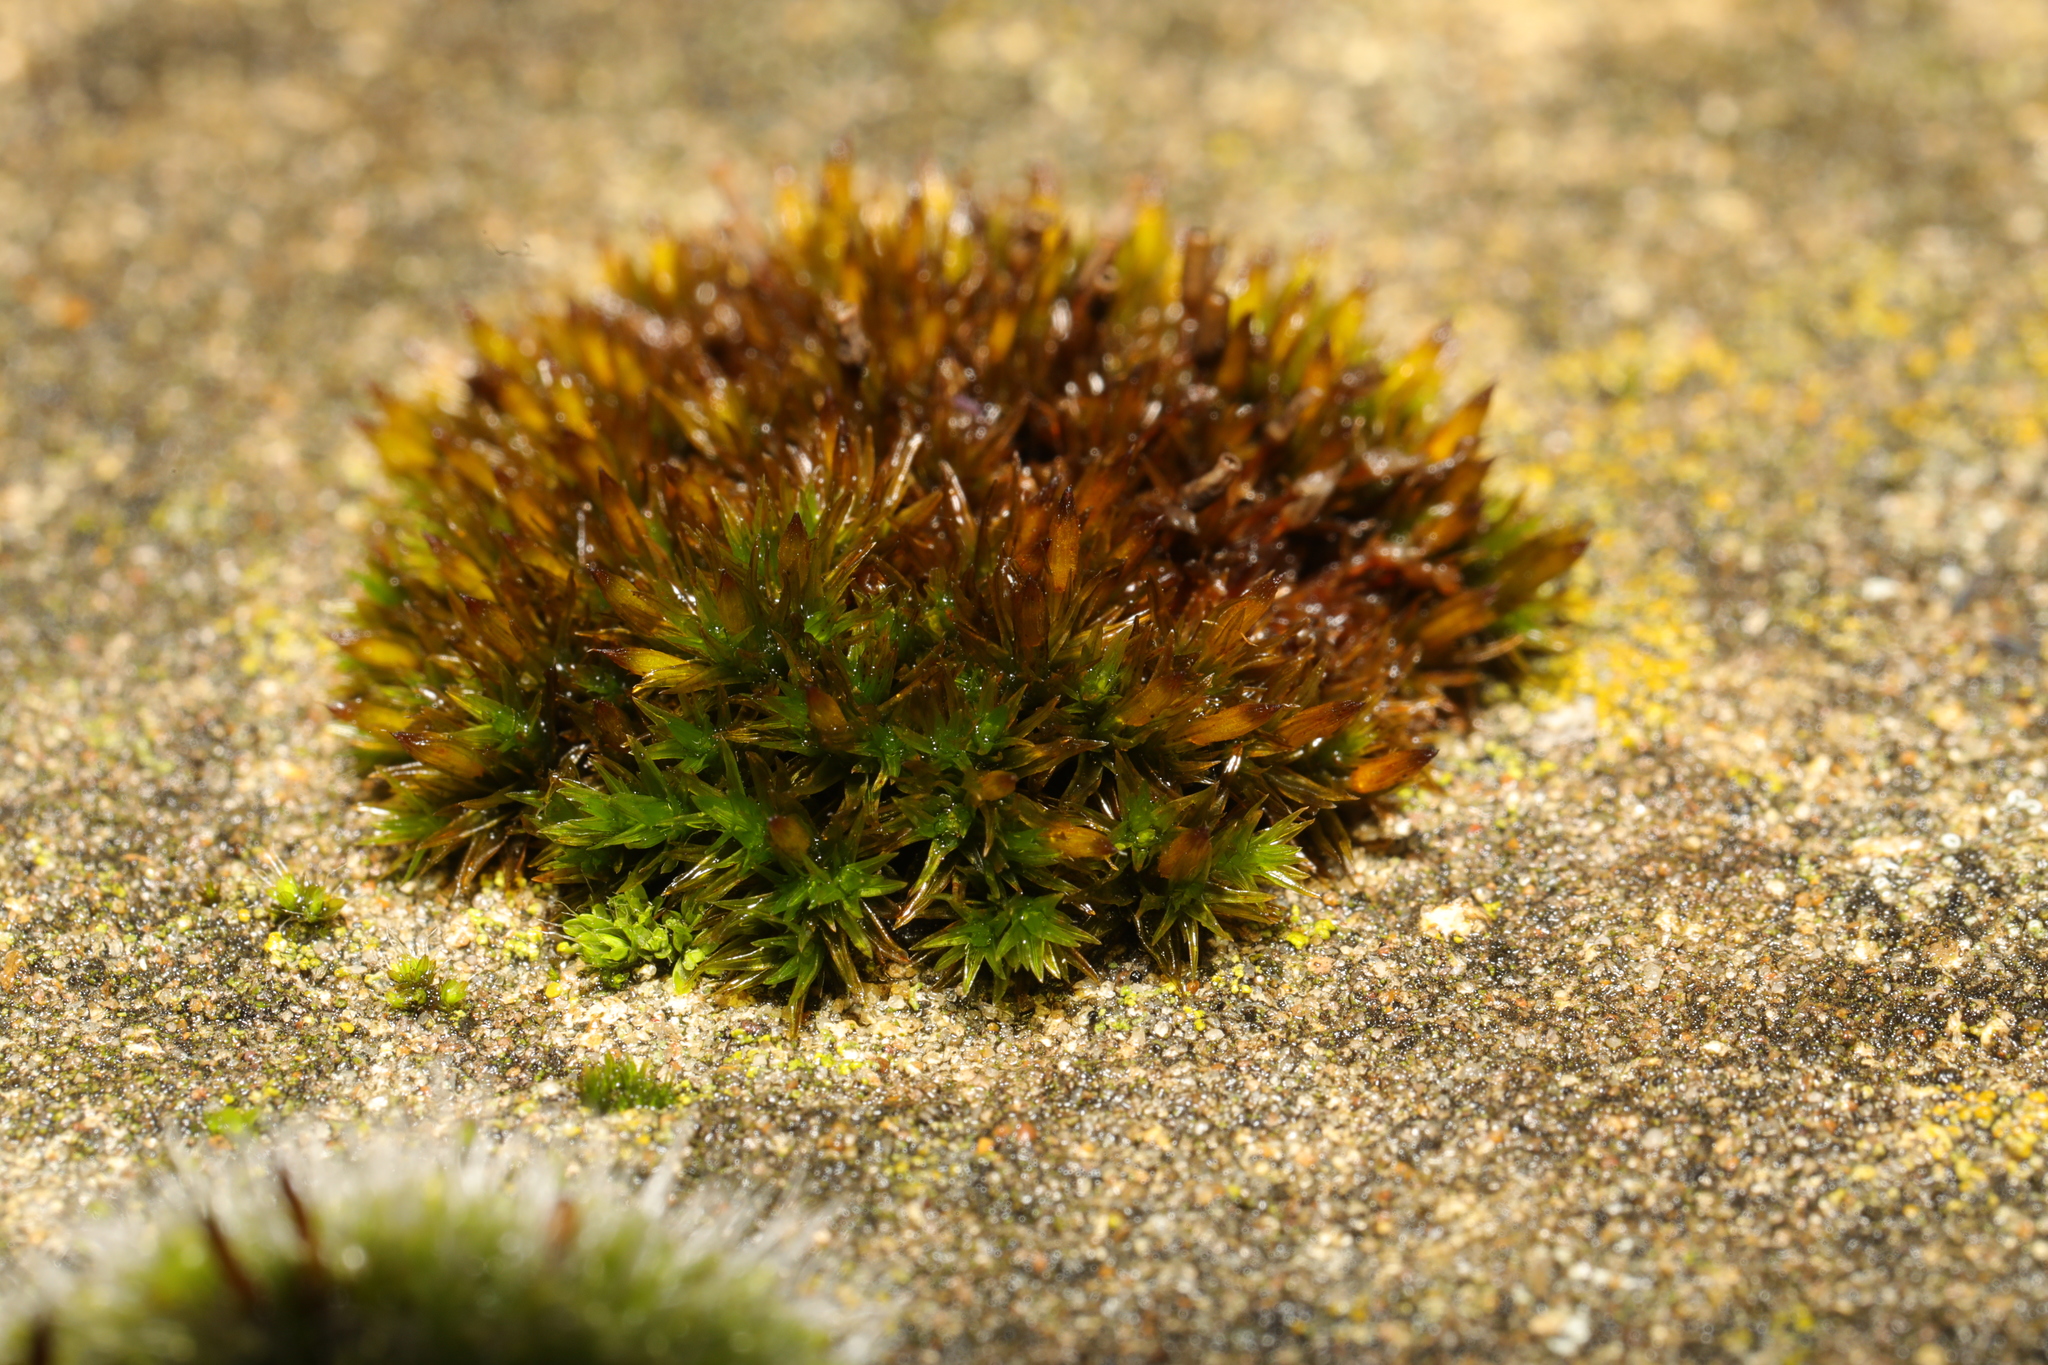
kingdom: Plantae
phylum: Bryophyta
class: Bryopsida
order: Orthotrichales
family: Orthotrichaceae
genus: Orthotrichum
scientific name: Orthotrichum anomalum
